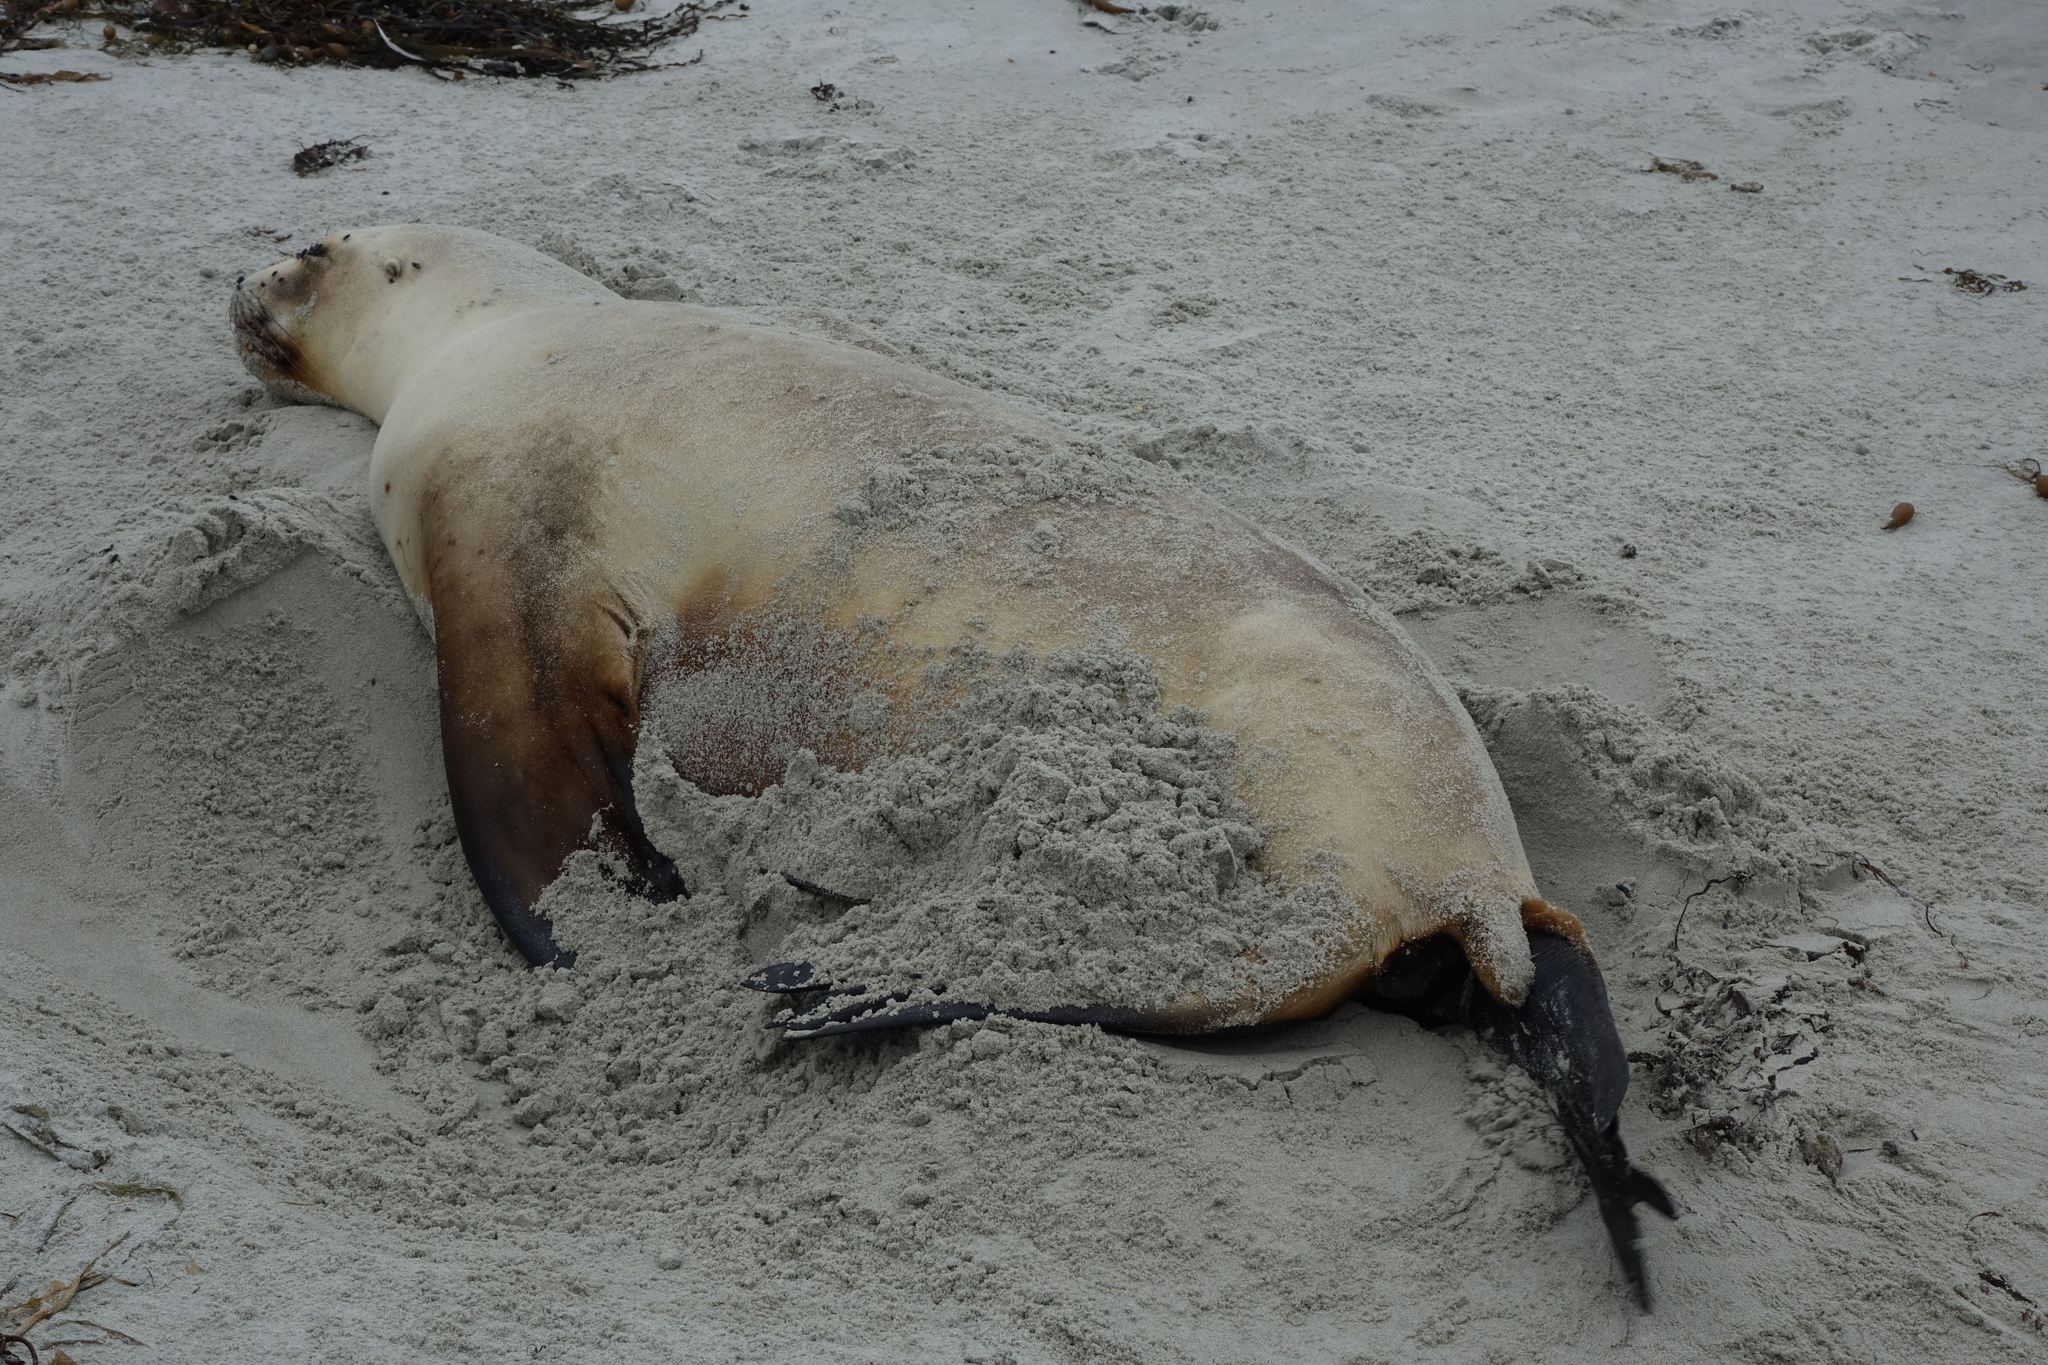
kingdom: Animalia
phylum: Chordata
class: Mammalia
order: Carnivora
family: Otariidae
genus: Phocarctos
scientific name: Phocarctos hookeri
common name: New zealand sea lion
